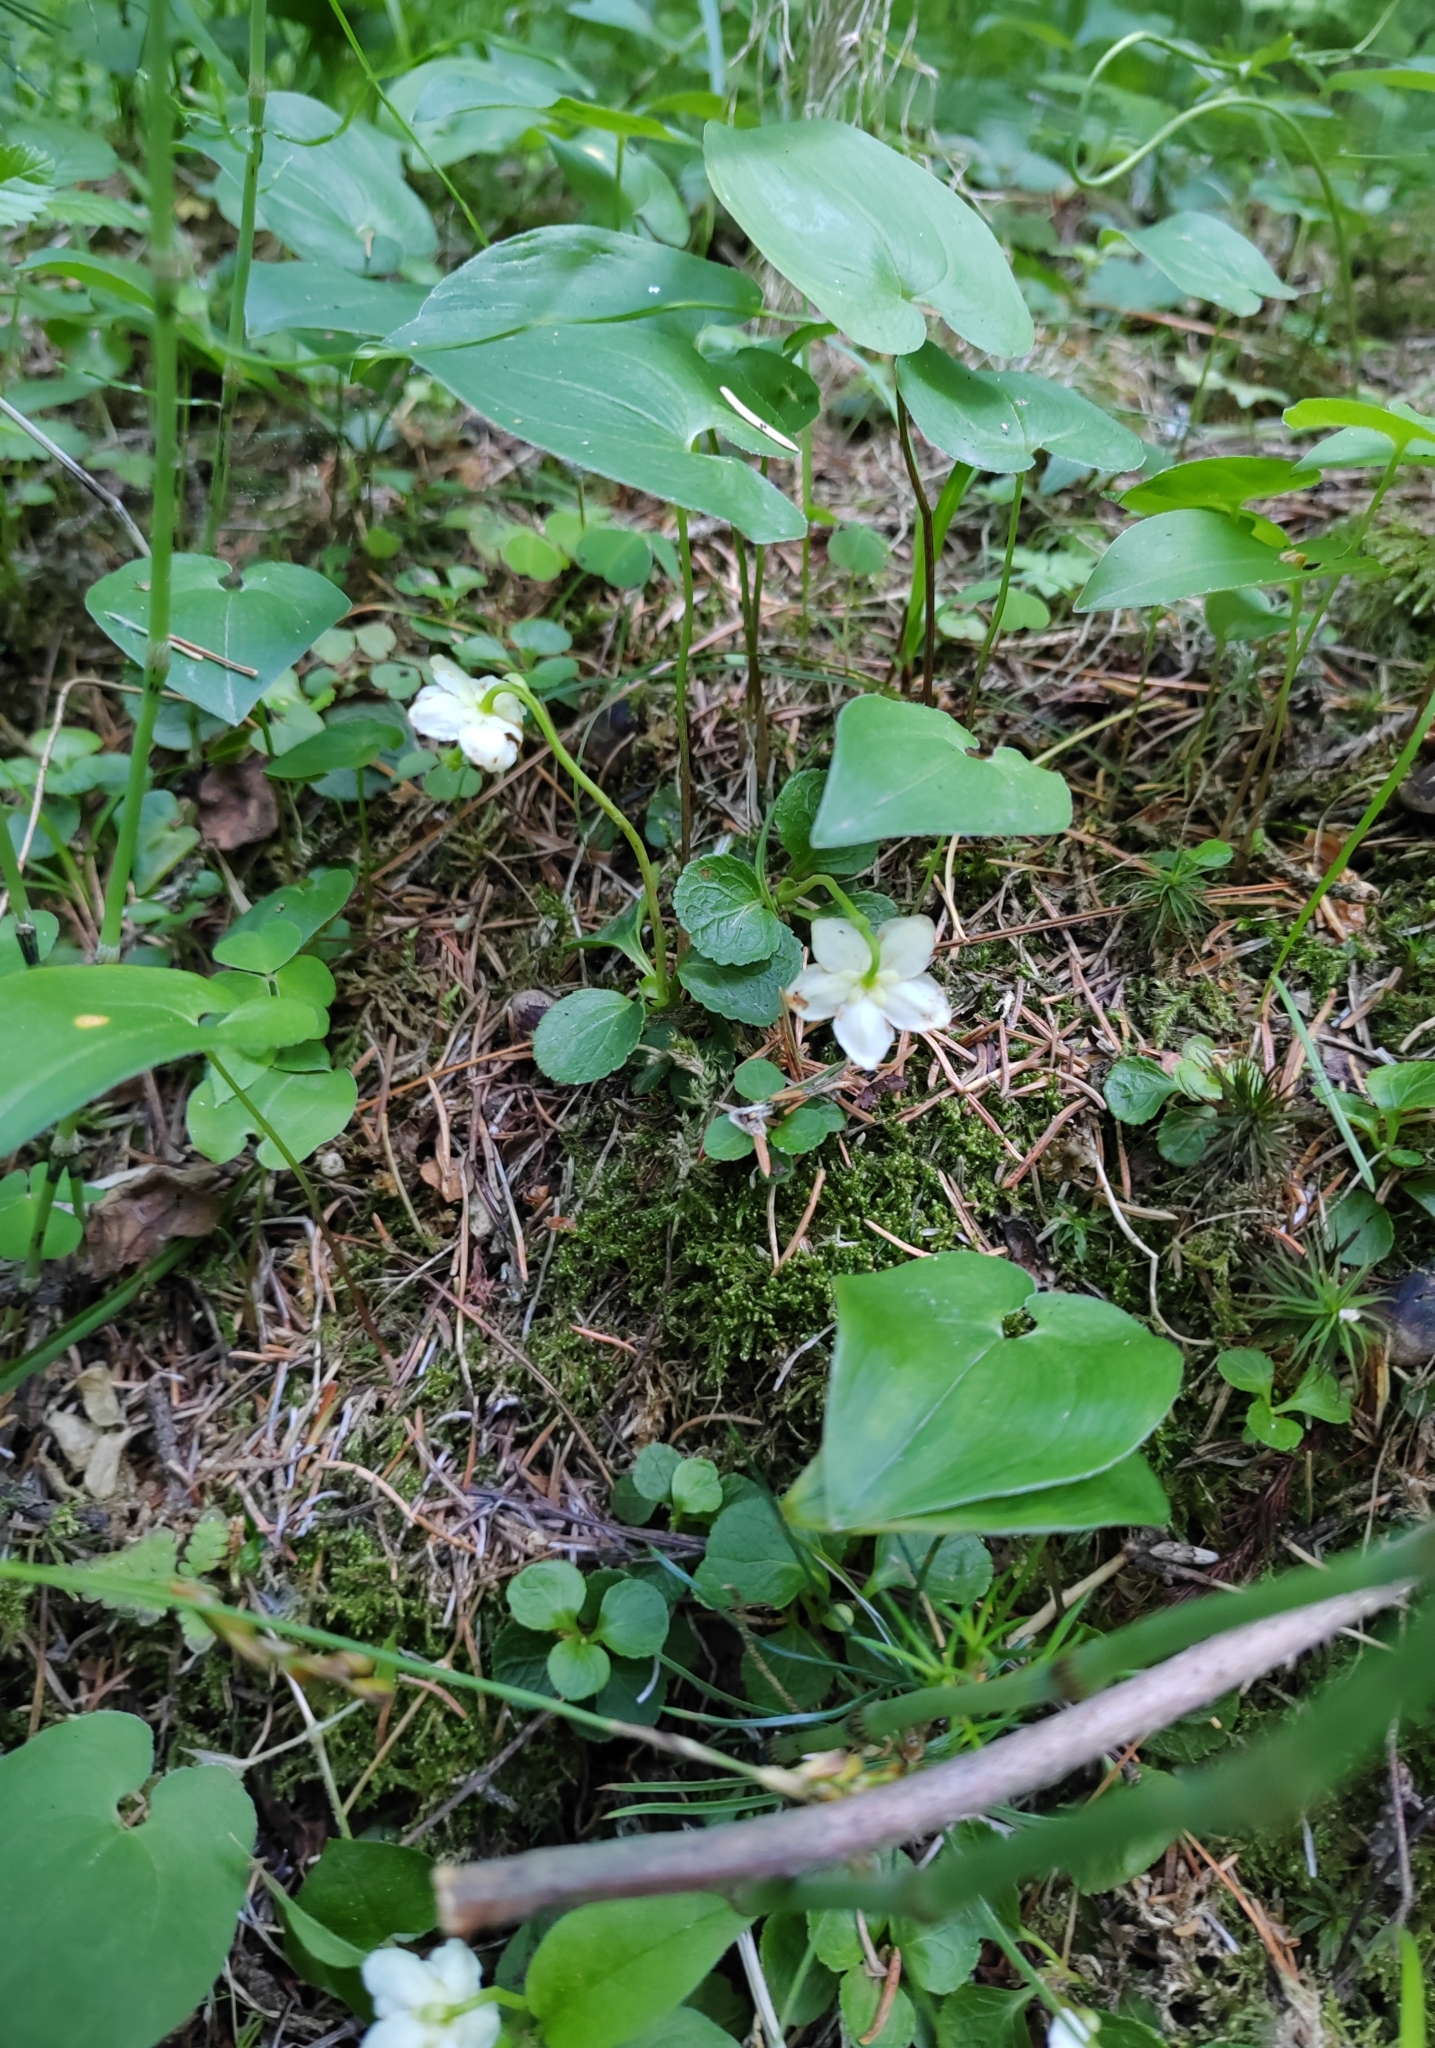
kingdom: Plantae
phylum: Tracheophyta
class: Magnoliopsida
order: Ericales
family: Ericaceae
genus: Moneses
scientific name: Moneses uniflora
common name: One-flowered wintergreen
